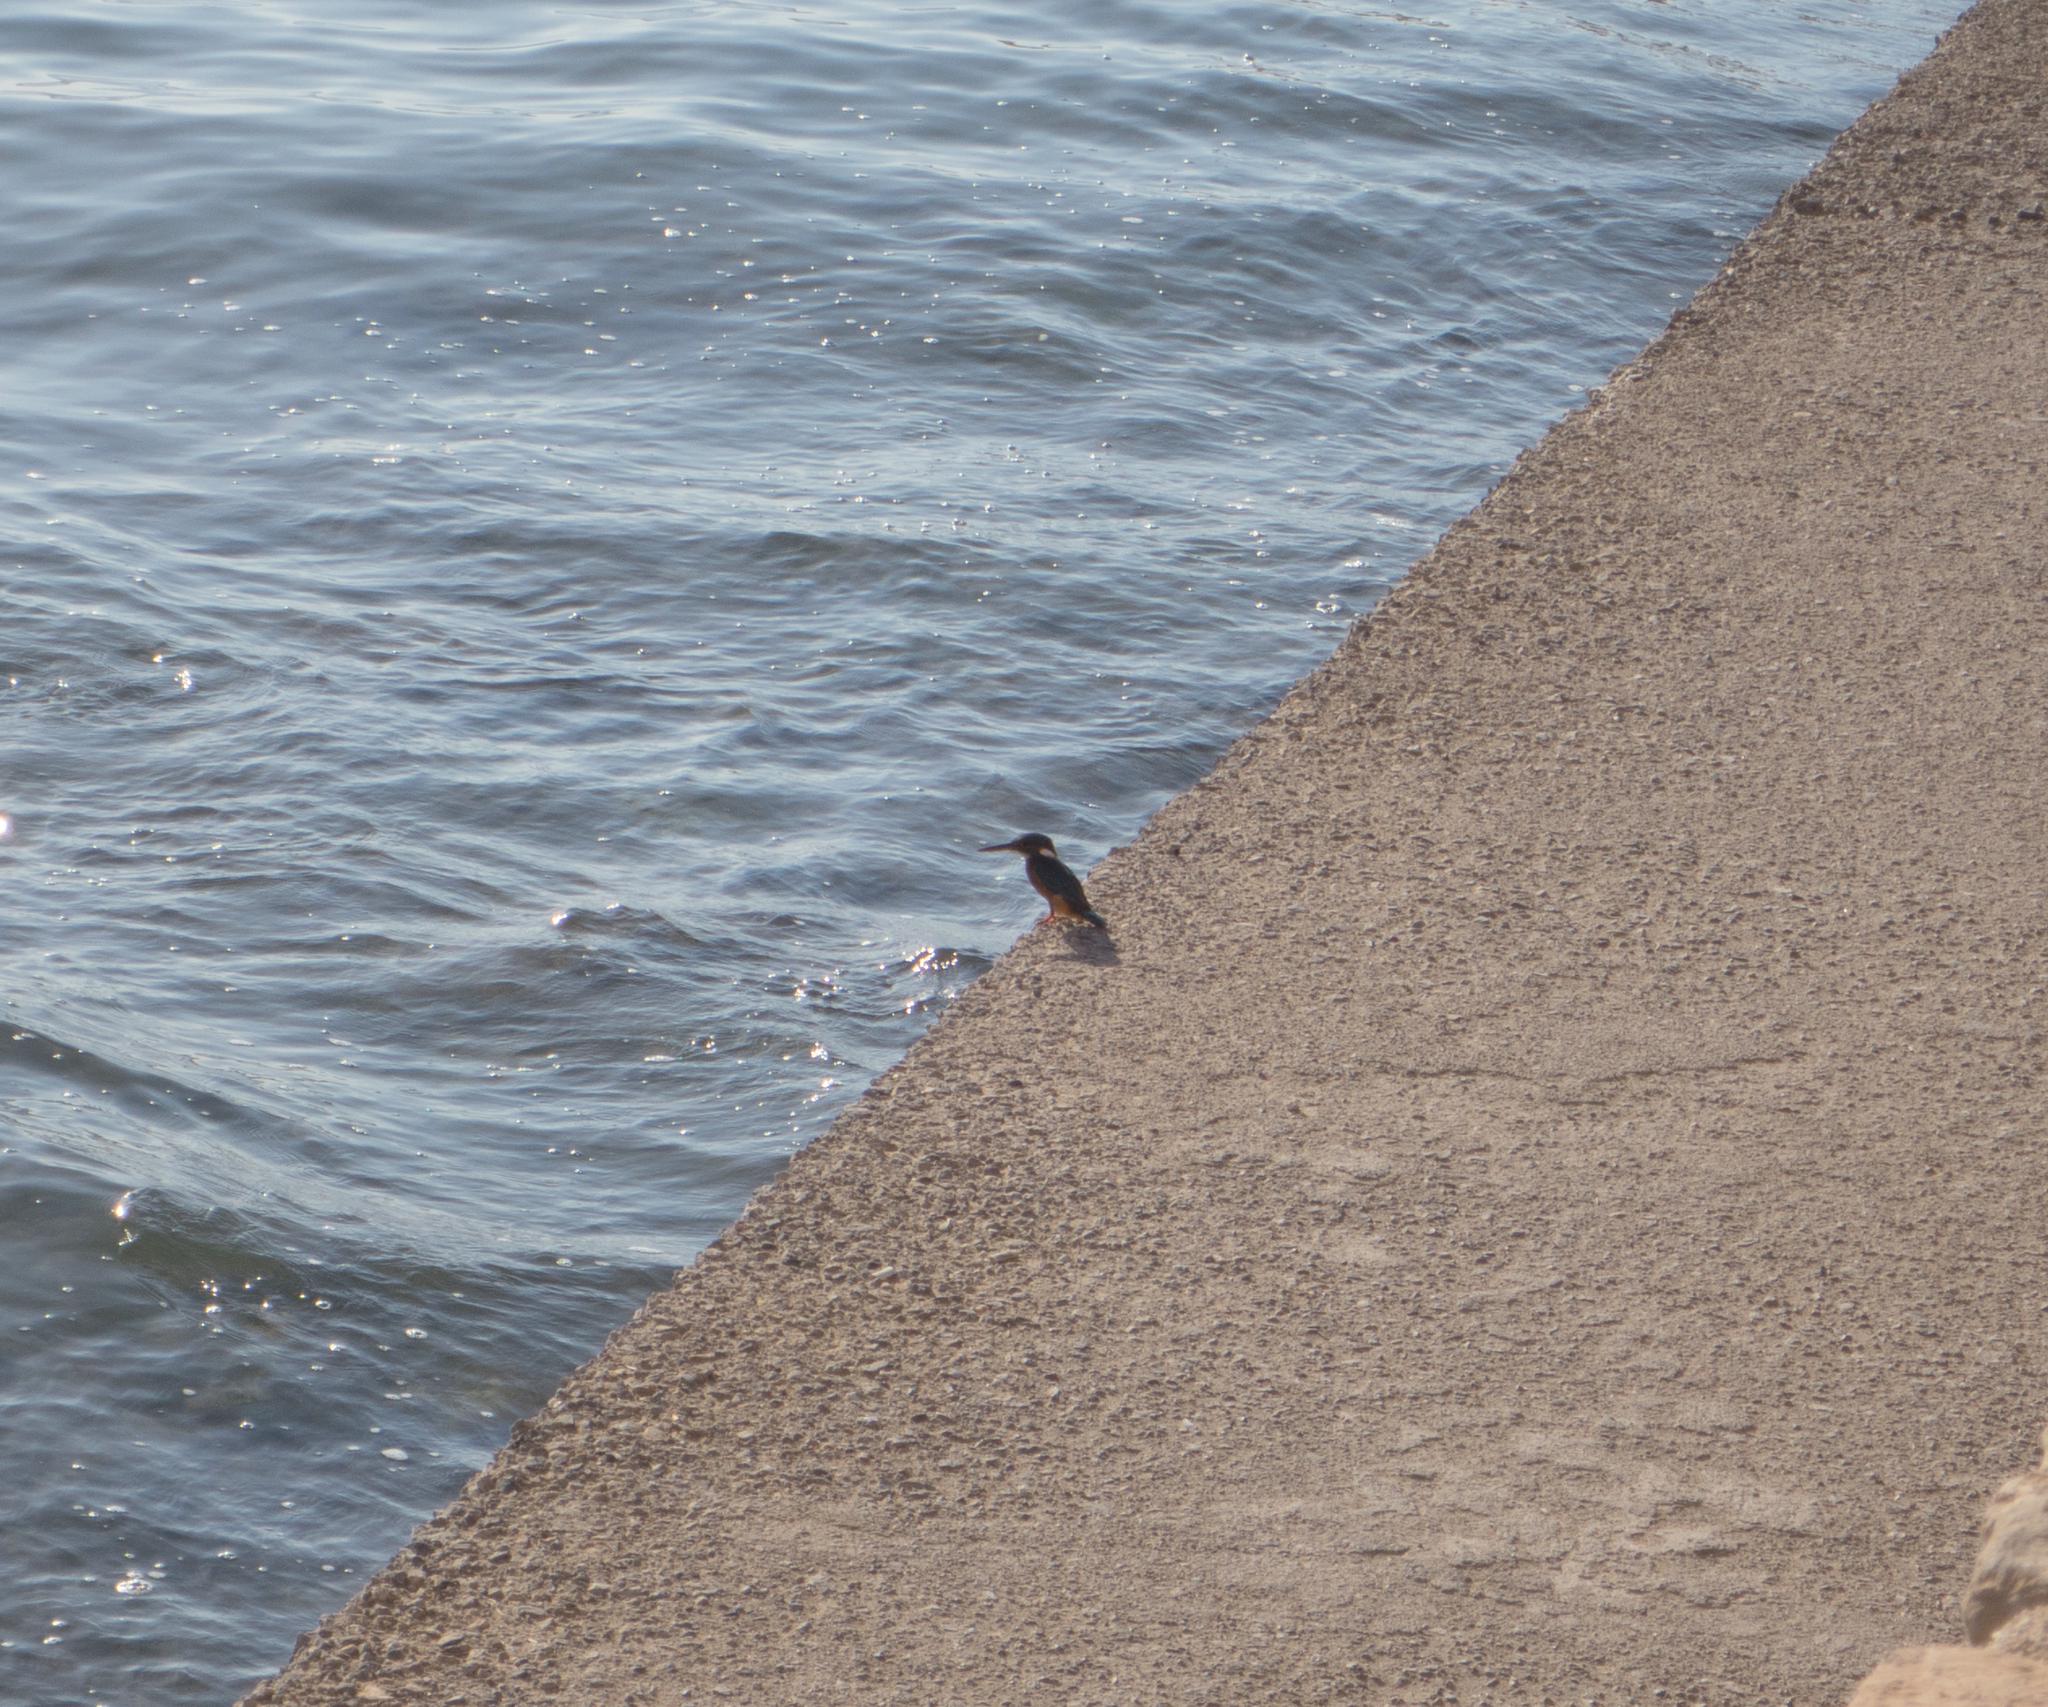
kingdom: Animalia
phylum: Chordata
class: Aves
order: Coraciiformes
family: Alcedinidae
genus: Alcedo
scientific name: Alcedo atthis
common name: Common kingfisher
